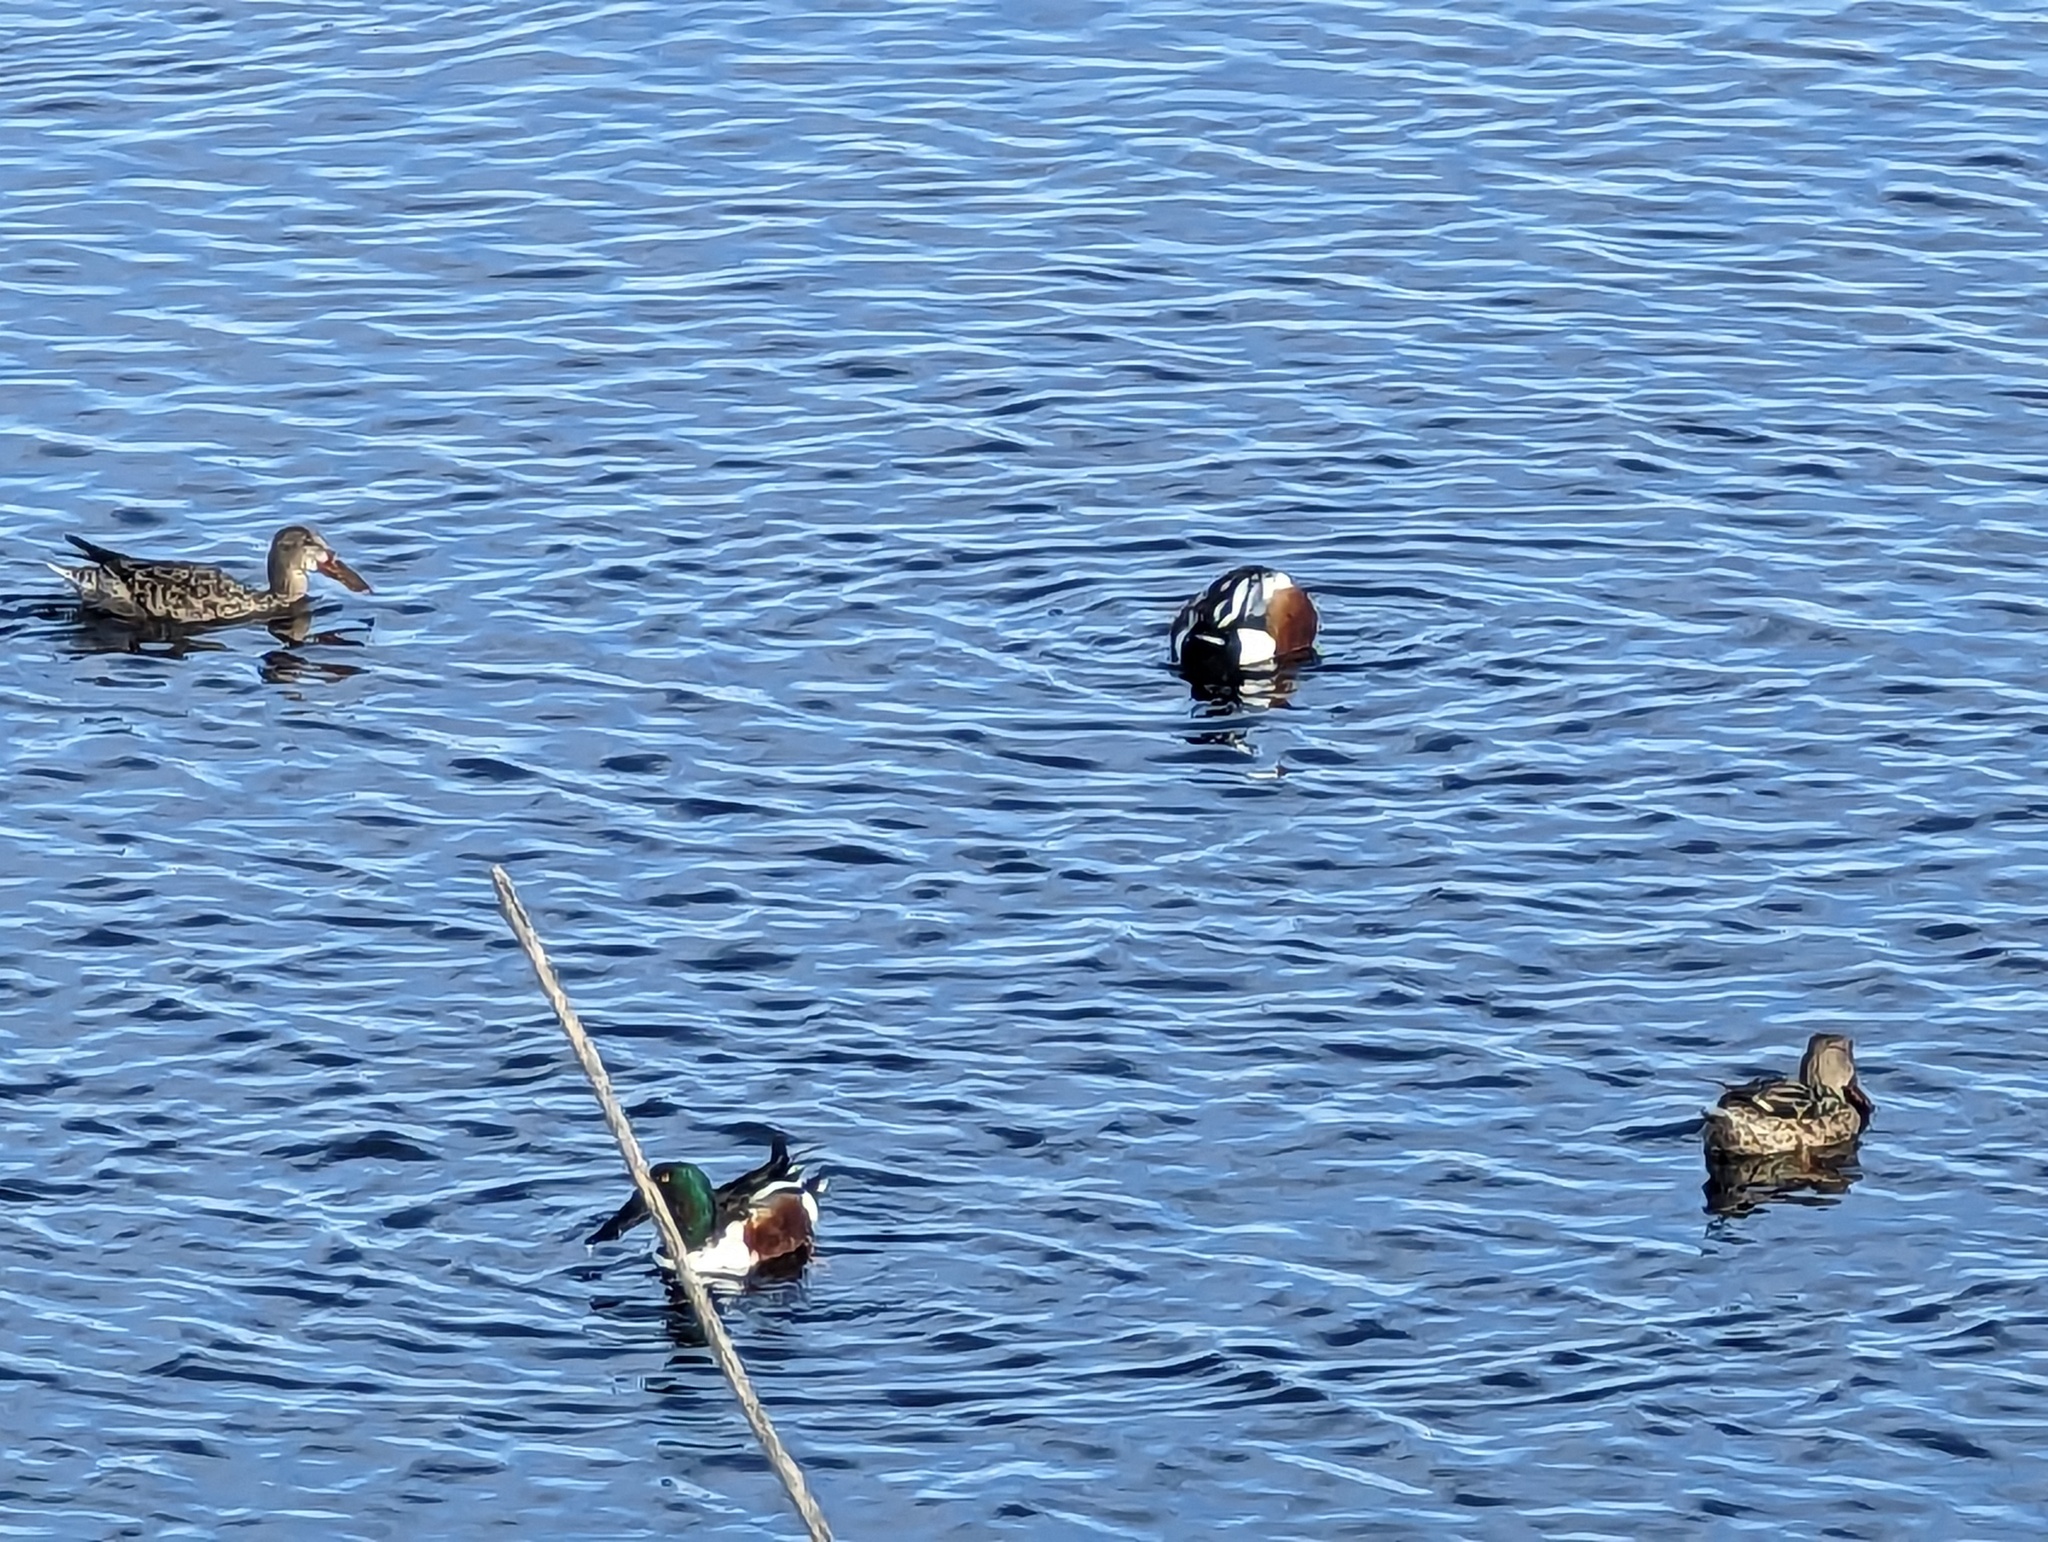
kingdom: Animalia
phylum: Chordata
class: Aves
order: Anseriformes
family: Anatidae
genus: Spatula
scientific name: Spatula clypeata
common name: Northern shoveler
